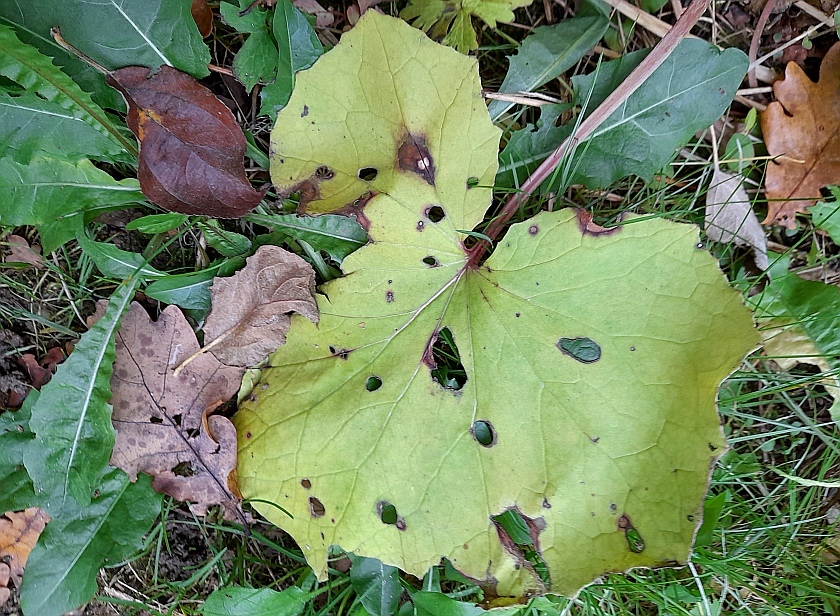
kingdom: Plantae
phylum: Tracheophyta
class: Magnoliopsida
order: Asterales
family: Asteraceae
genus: Tussilago
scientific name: Tussilago farfara
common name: Coltsfoot
